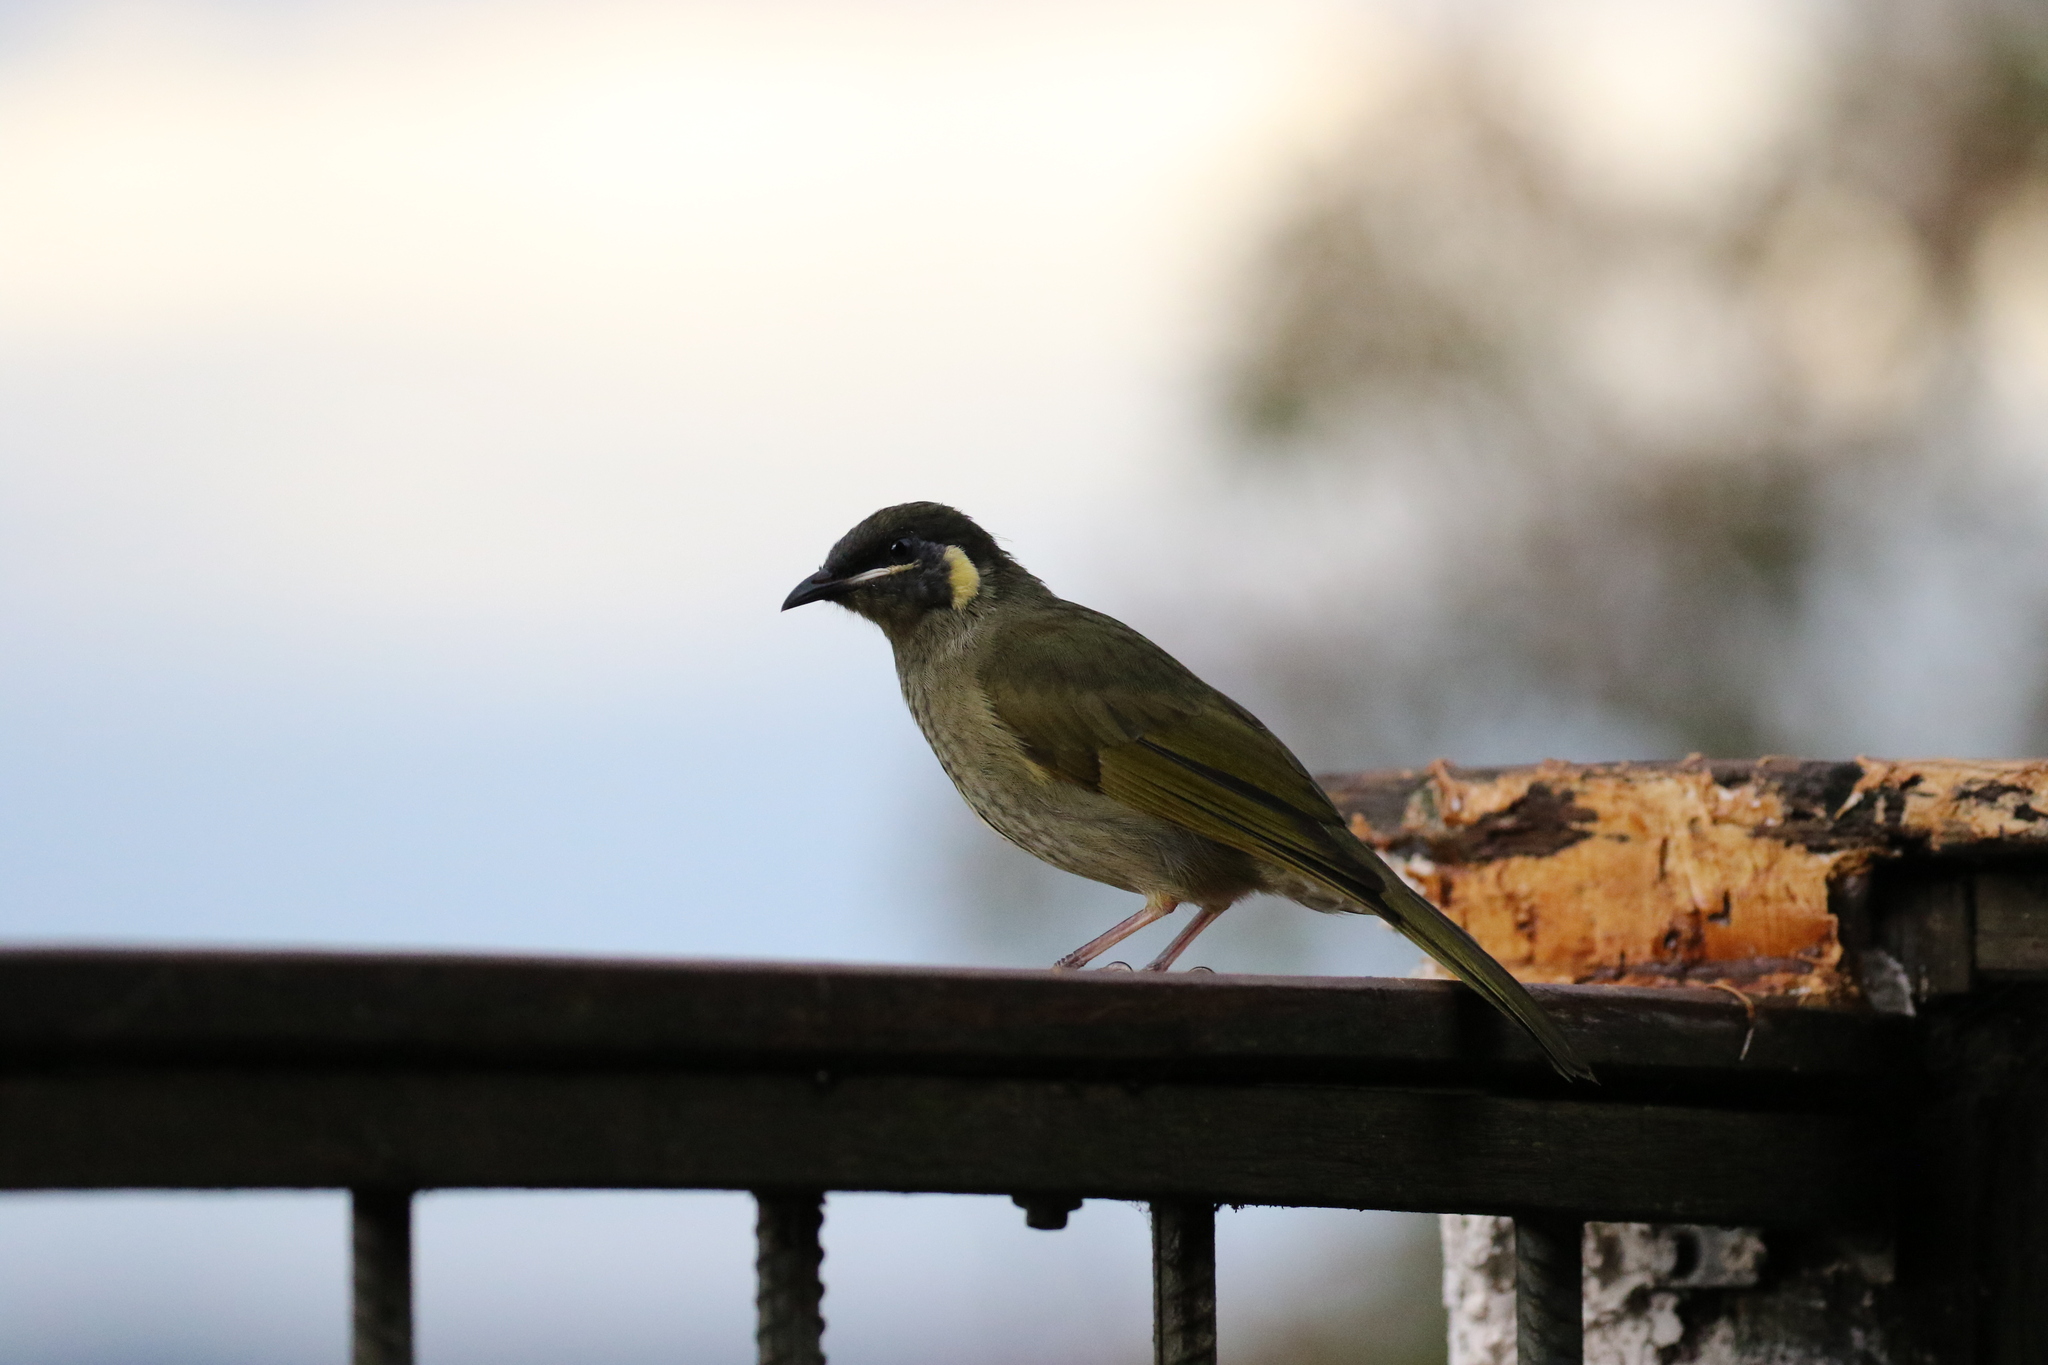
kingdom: Animalia
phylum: Chordata
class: Aves
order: Passeriformes
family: Meliphagidae
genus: Meliphaga
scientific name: Meliphaga lewinii
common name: Lewin's honeyeater
